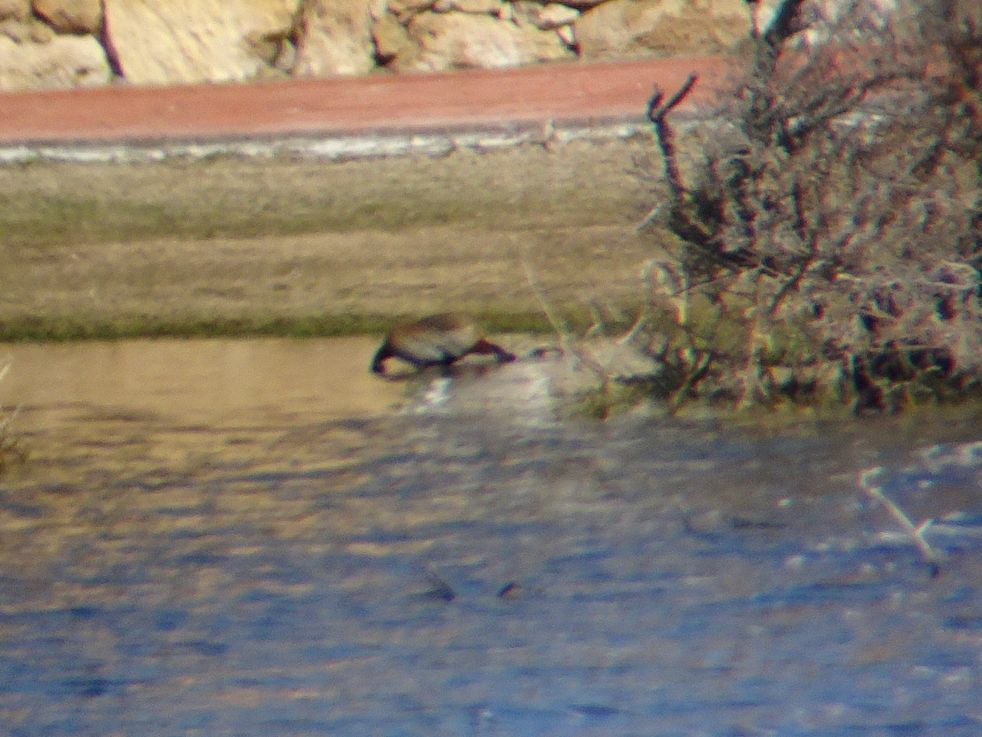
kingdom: Animalia
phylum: Chordata
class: Aves
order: Anseriformes
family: Anatidae
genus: Dendrocygna
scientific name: Dendrocygna viduata
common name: White-faced whistling duck
